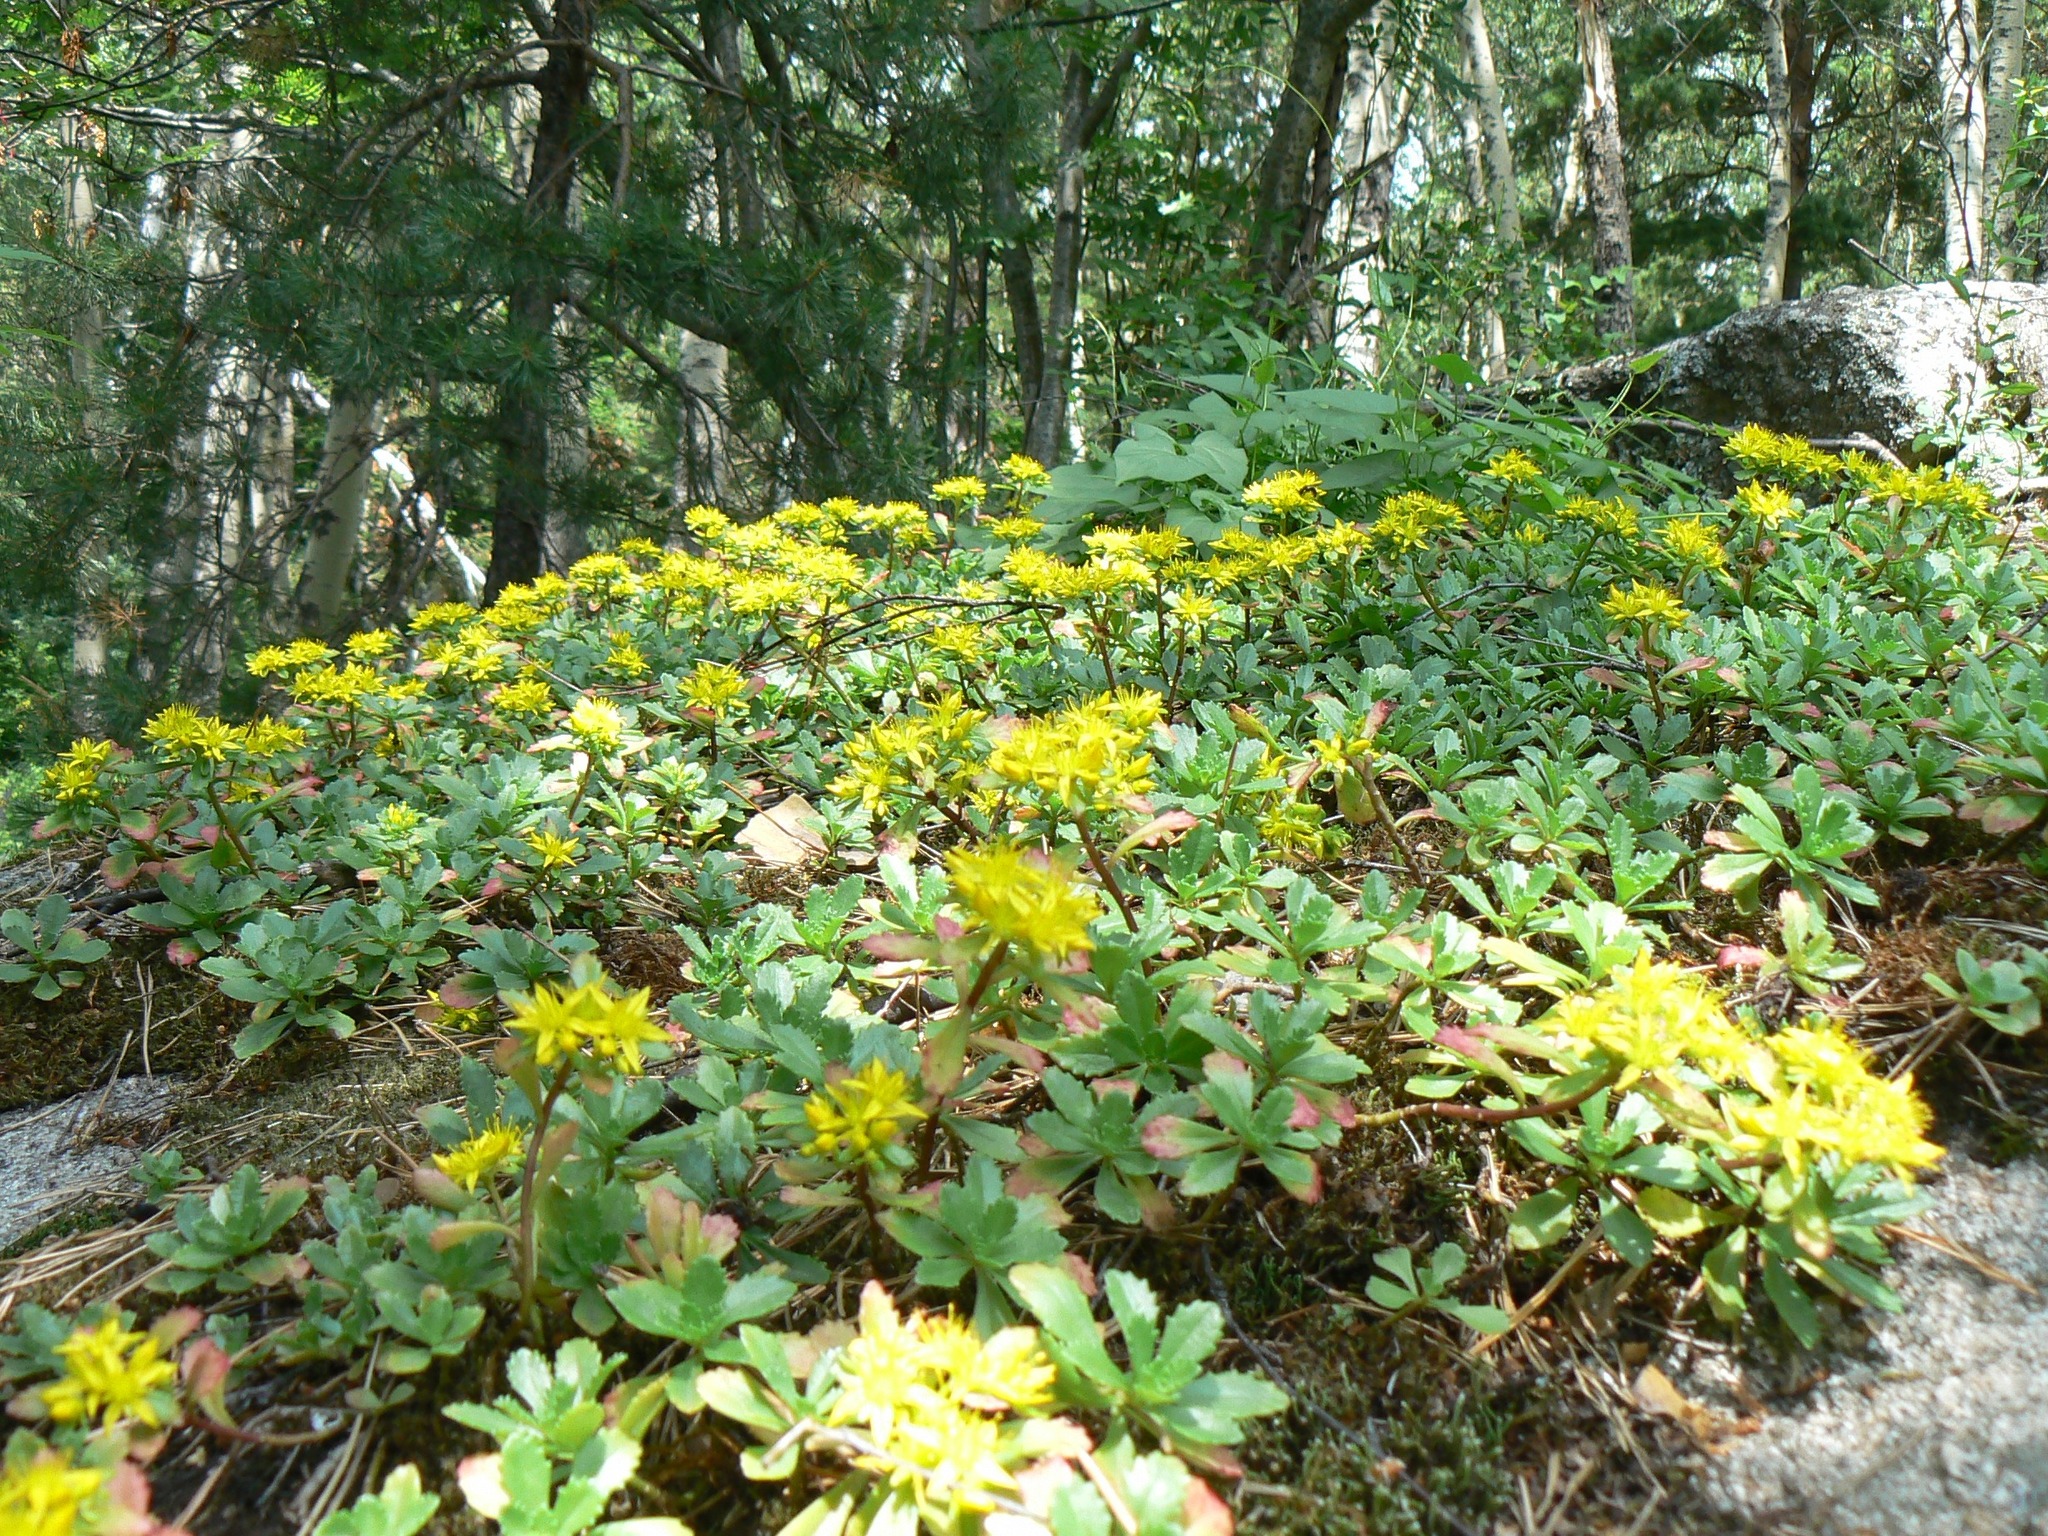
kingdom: Plantae
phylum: Tracheophyta
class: Magnoliopsida
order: Saxifragales
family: Crassulaceae
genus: Phedimus
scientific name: Phedimus hybridus
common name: Hybrid stonecrop
